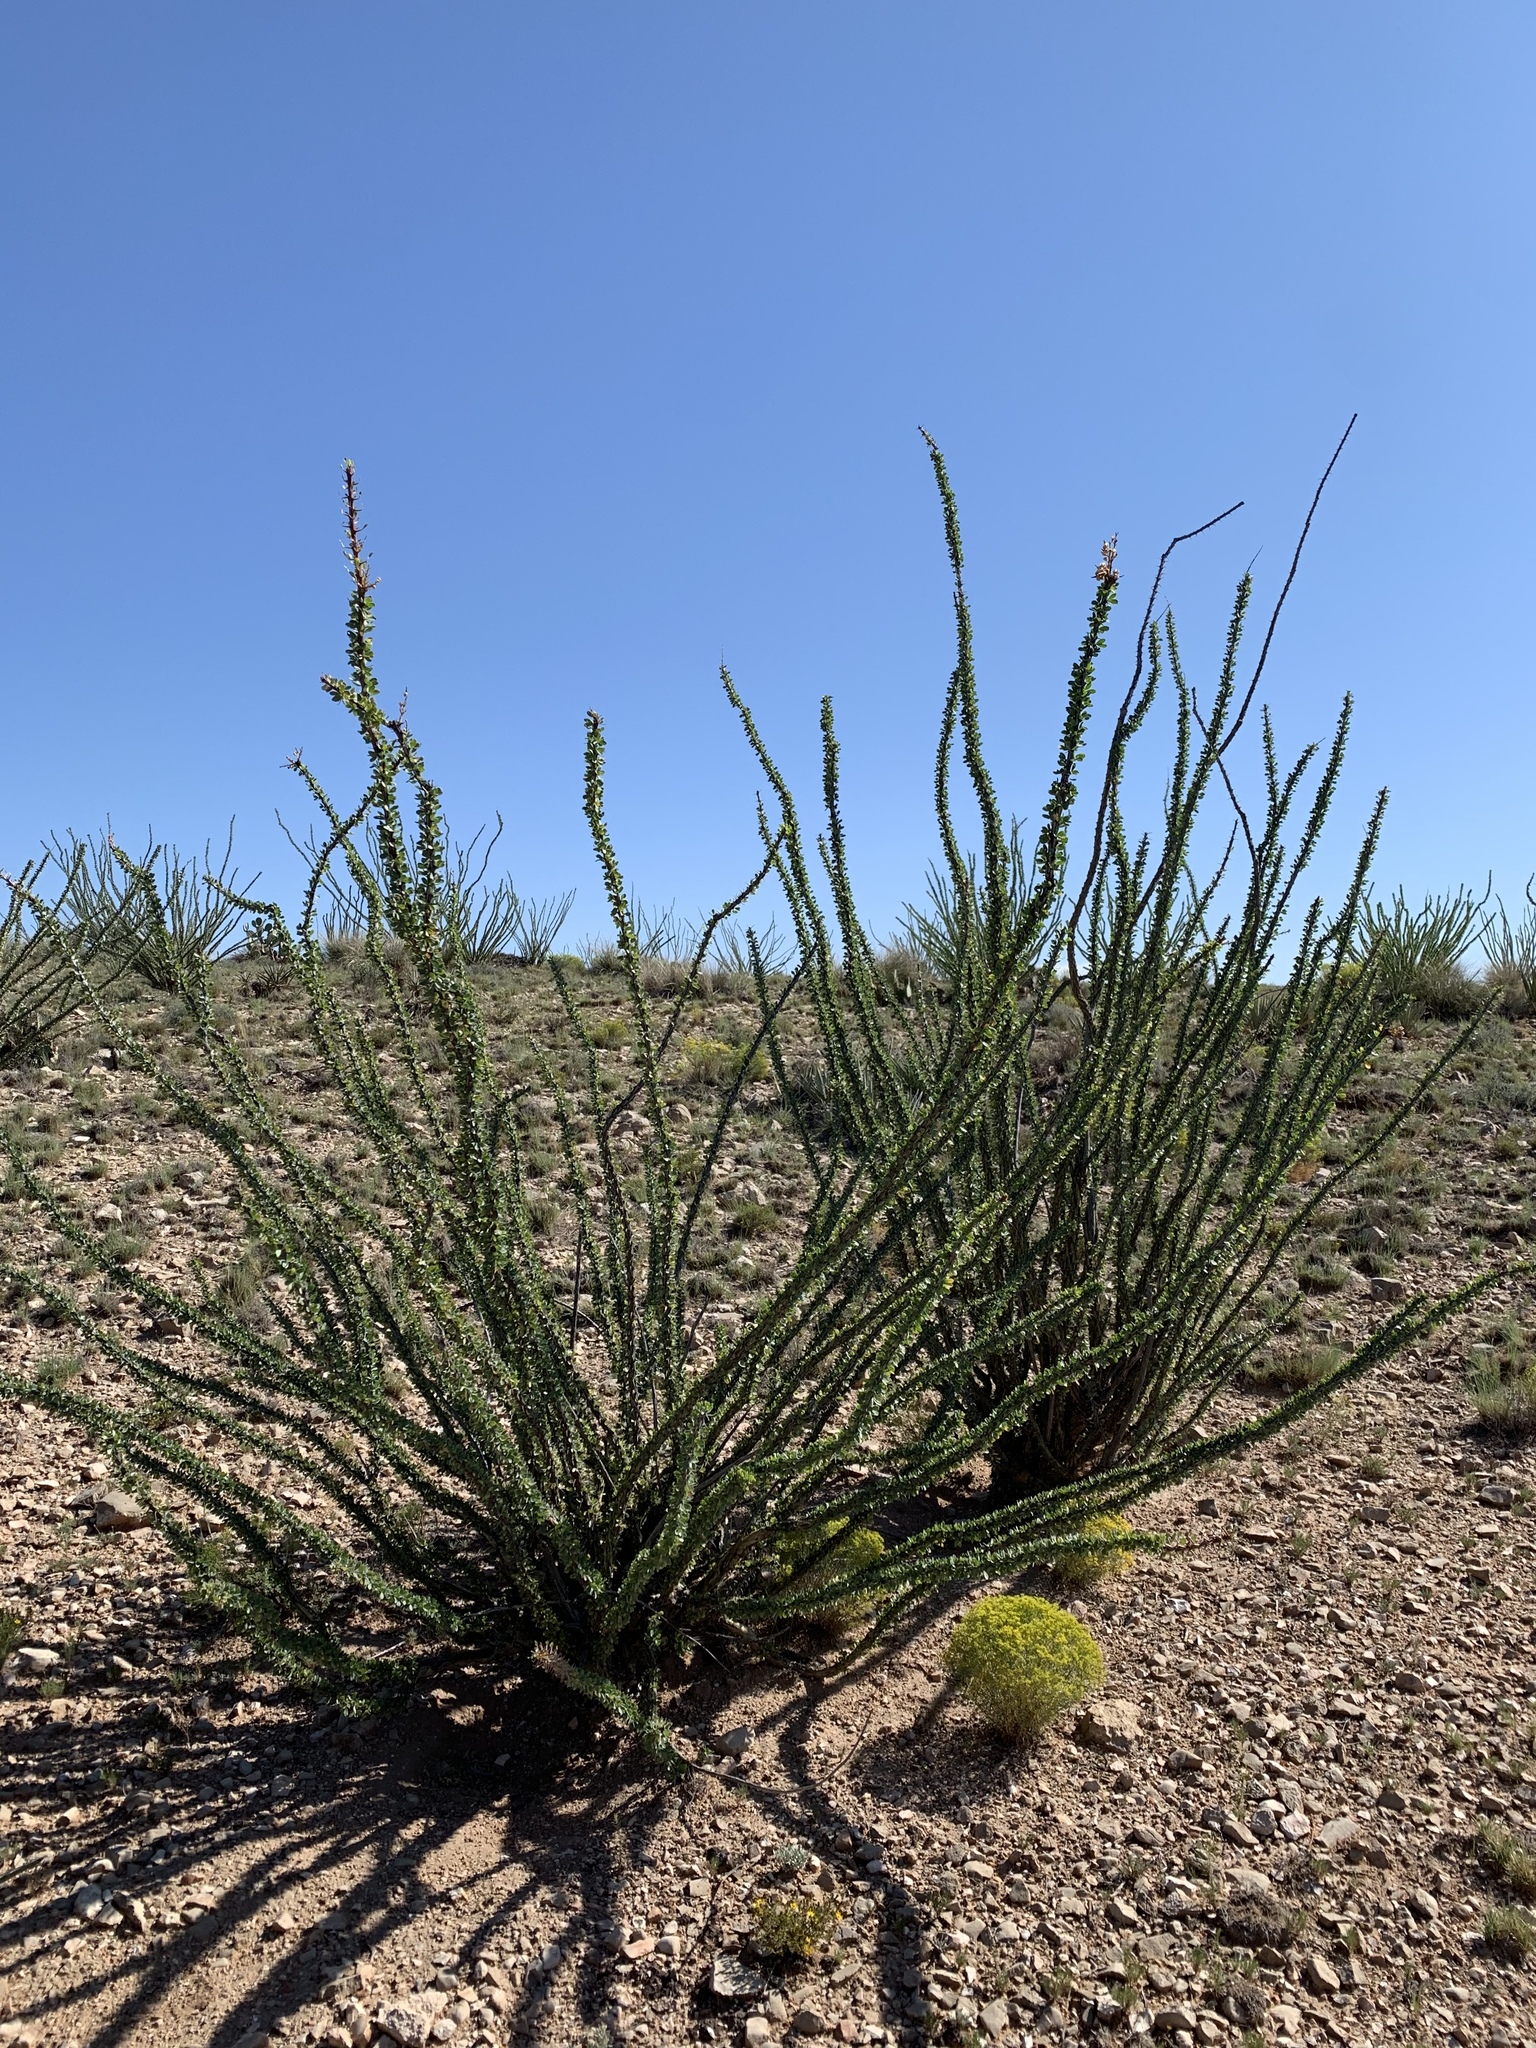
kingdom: Plantae
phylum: Tracheophyta
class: Magnoliopsida
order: Ericales
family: Fouquieriaceae
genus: Fouquieria
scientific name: Fouquieria splendens
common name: Vine-cactus
